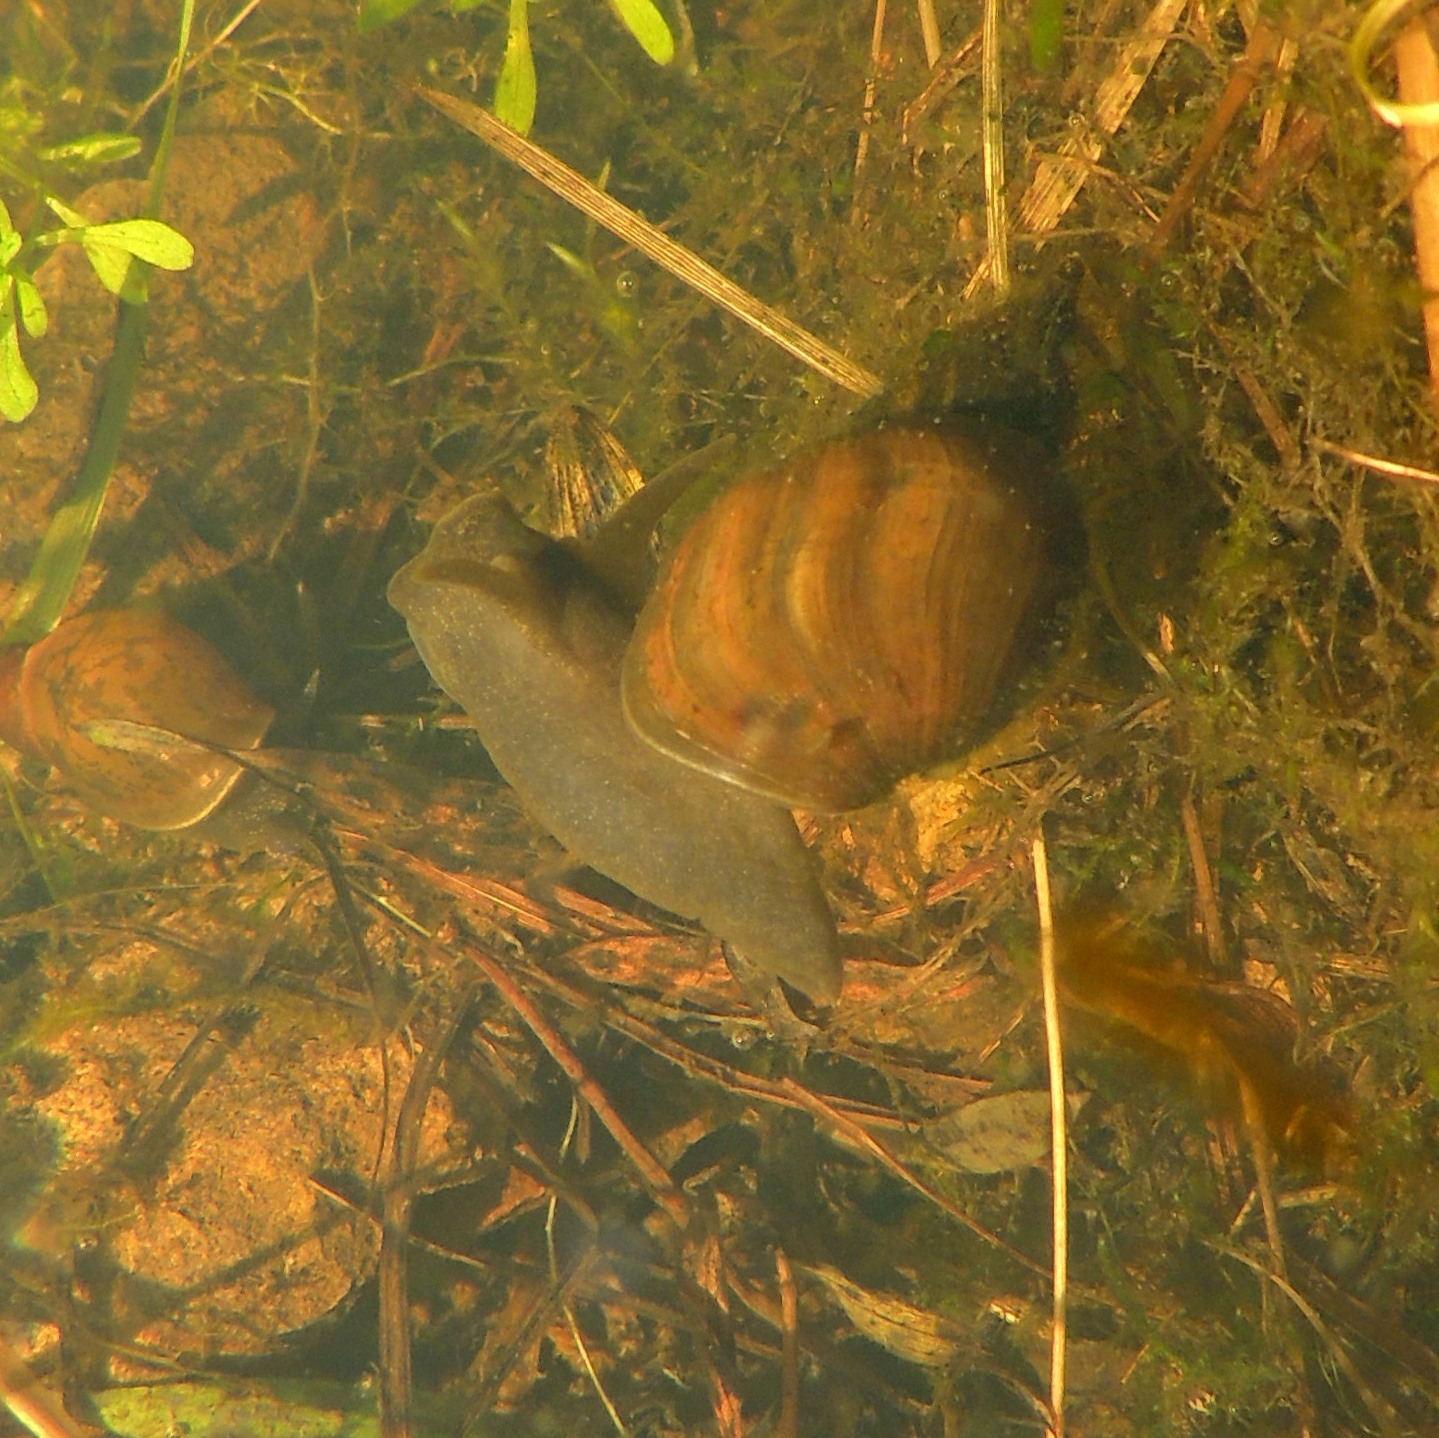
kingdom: Animalia
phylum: Mollusca
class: Gastropoda
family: Lymnaeidae
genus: Lymnaea
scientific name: Lymnaea stagnalis
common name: Great pond snail
